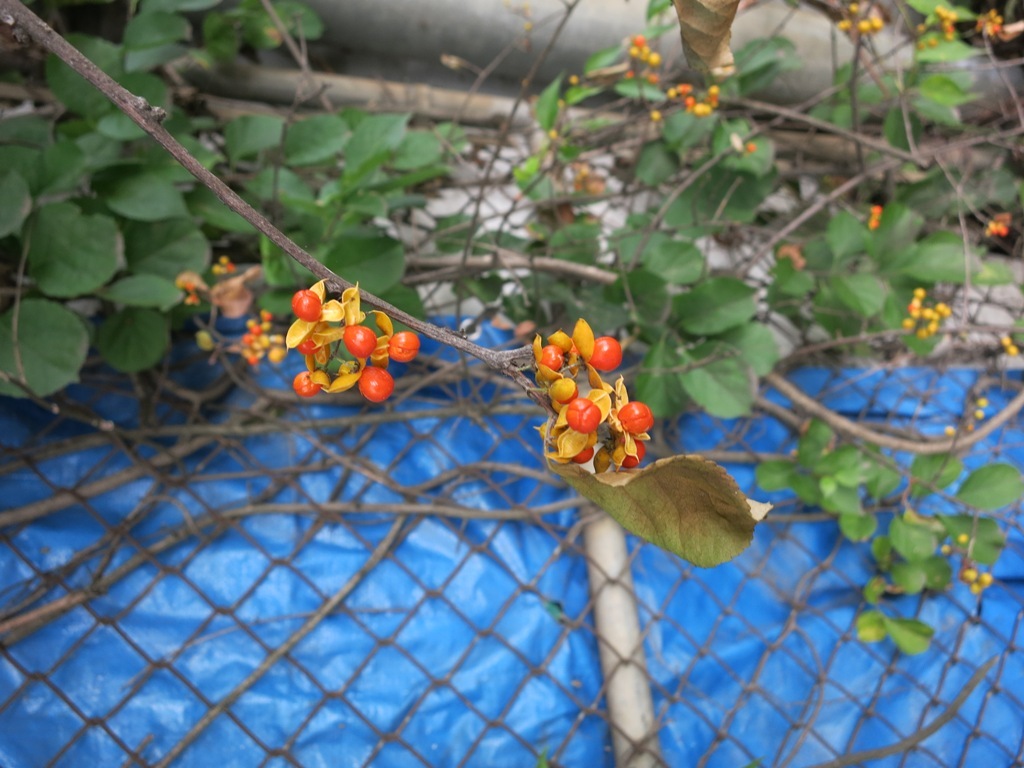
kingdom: Plantae
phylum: Tracheophyta
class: Magnoliopsida
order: Celastrales
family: Celastraceae
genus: Celastrus
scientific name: Celastrus orbiculatus
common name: Oriental bittersweet
